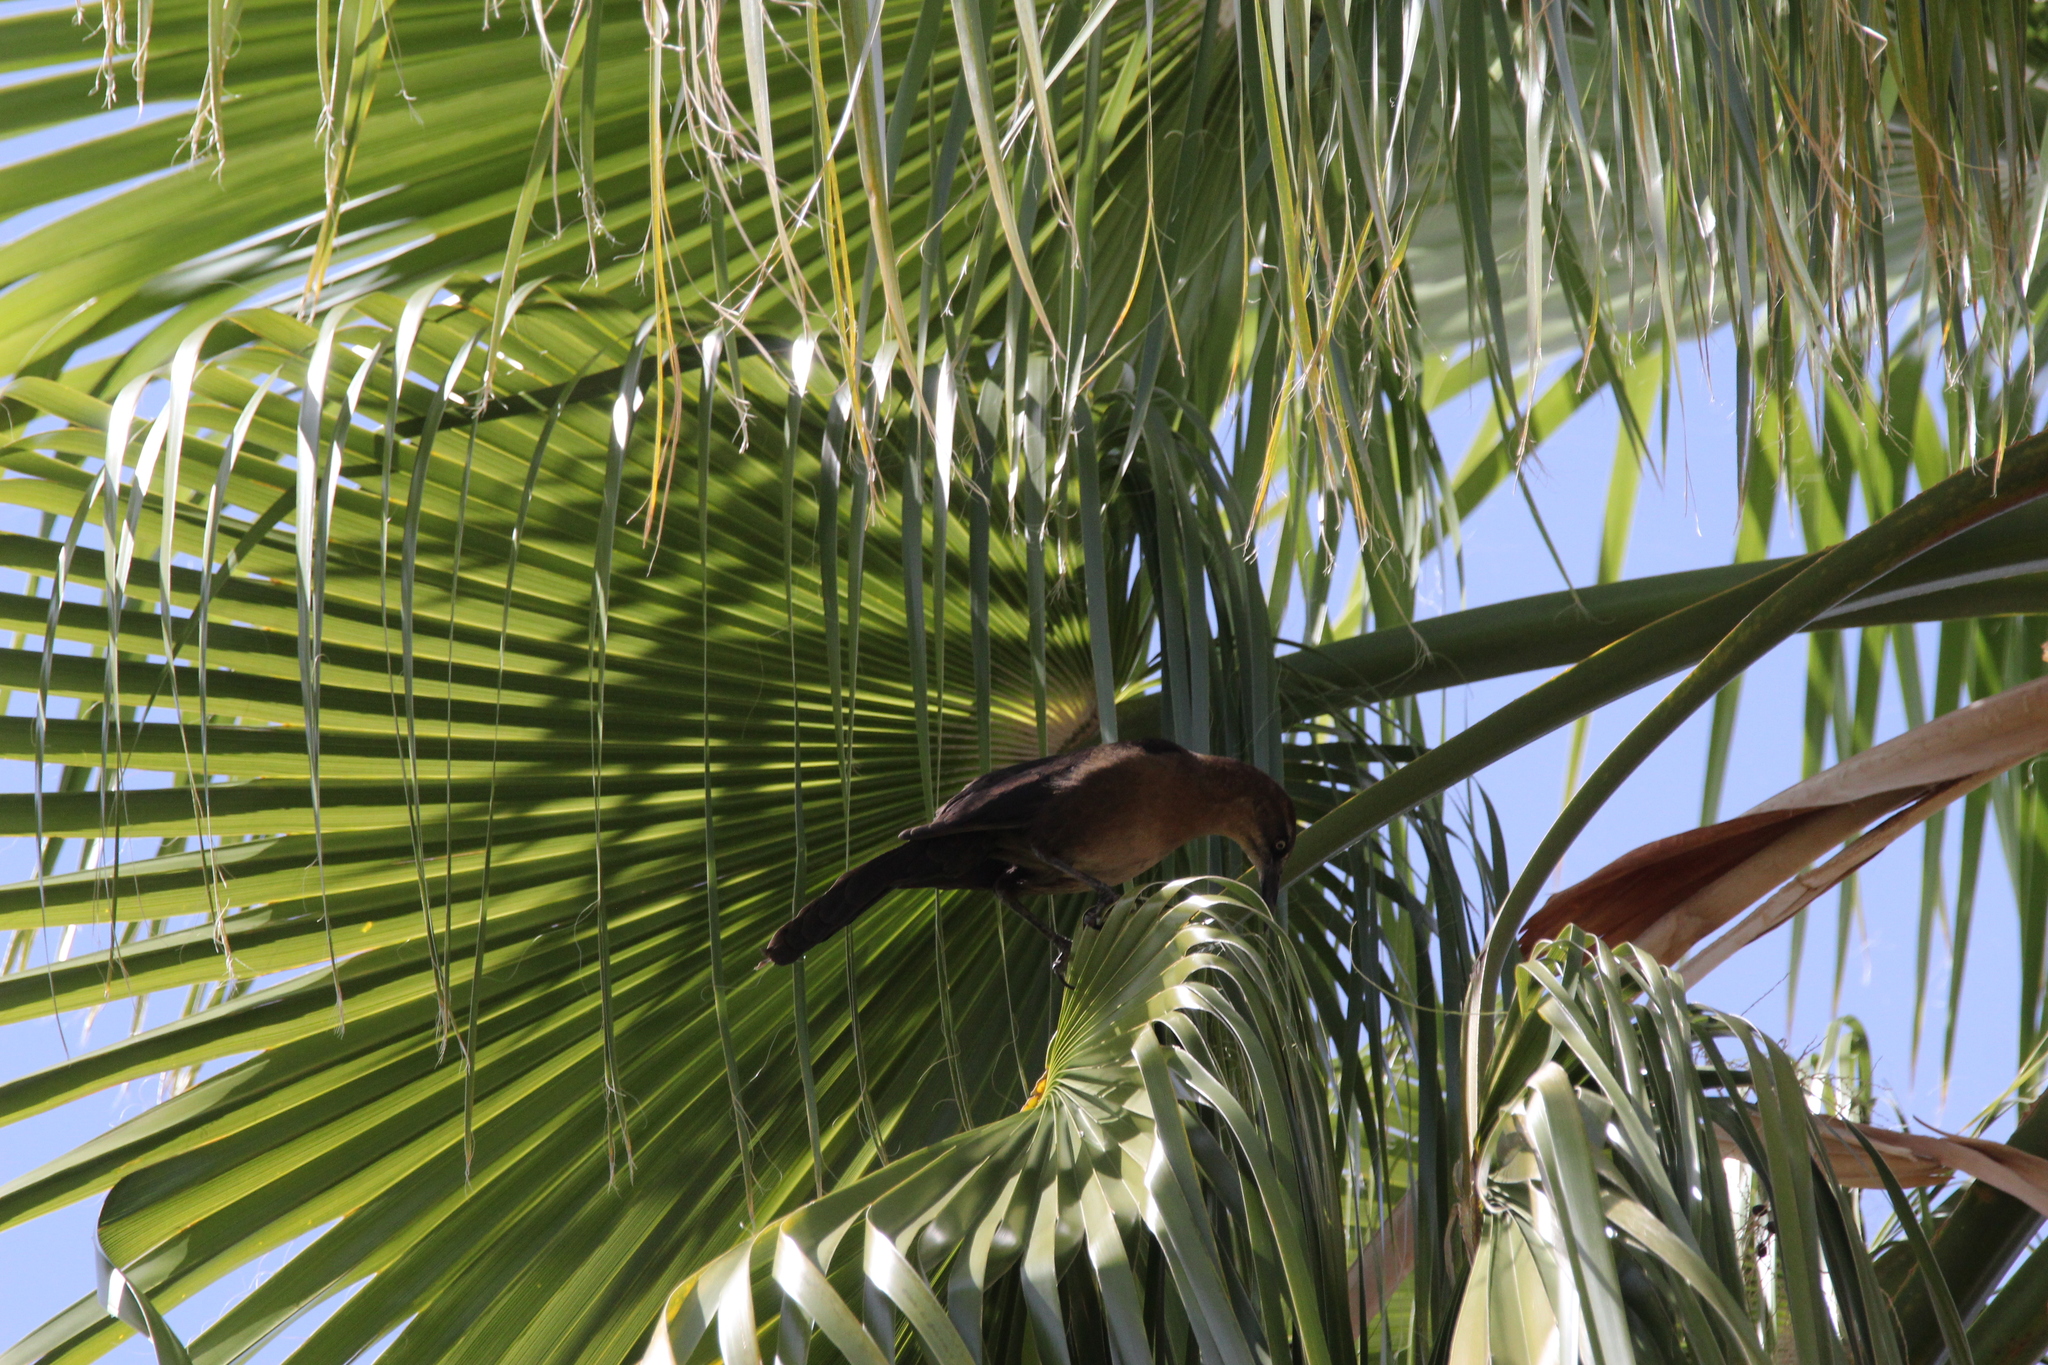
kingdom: Animalia
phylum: Chordata
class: Aves
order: Passeriformes
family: Icteridae
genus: Quiscalus
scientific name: Quiscalus mexicanus
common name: Great-tailed grackle
